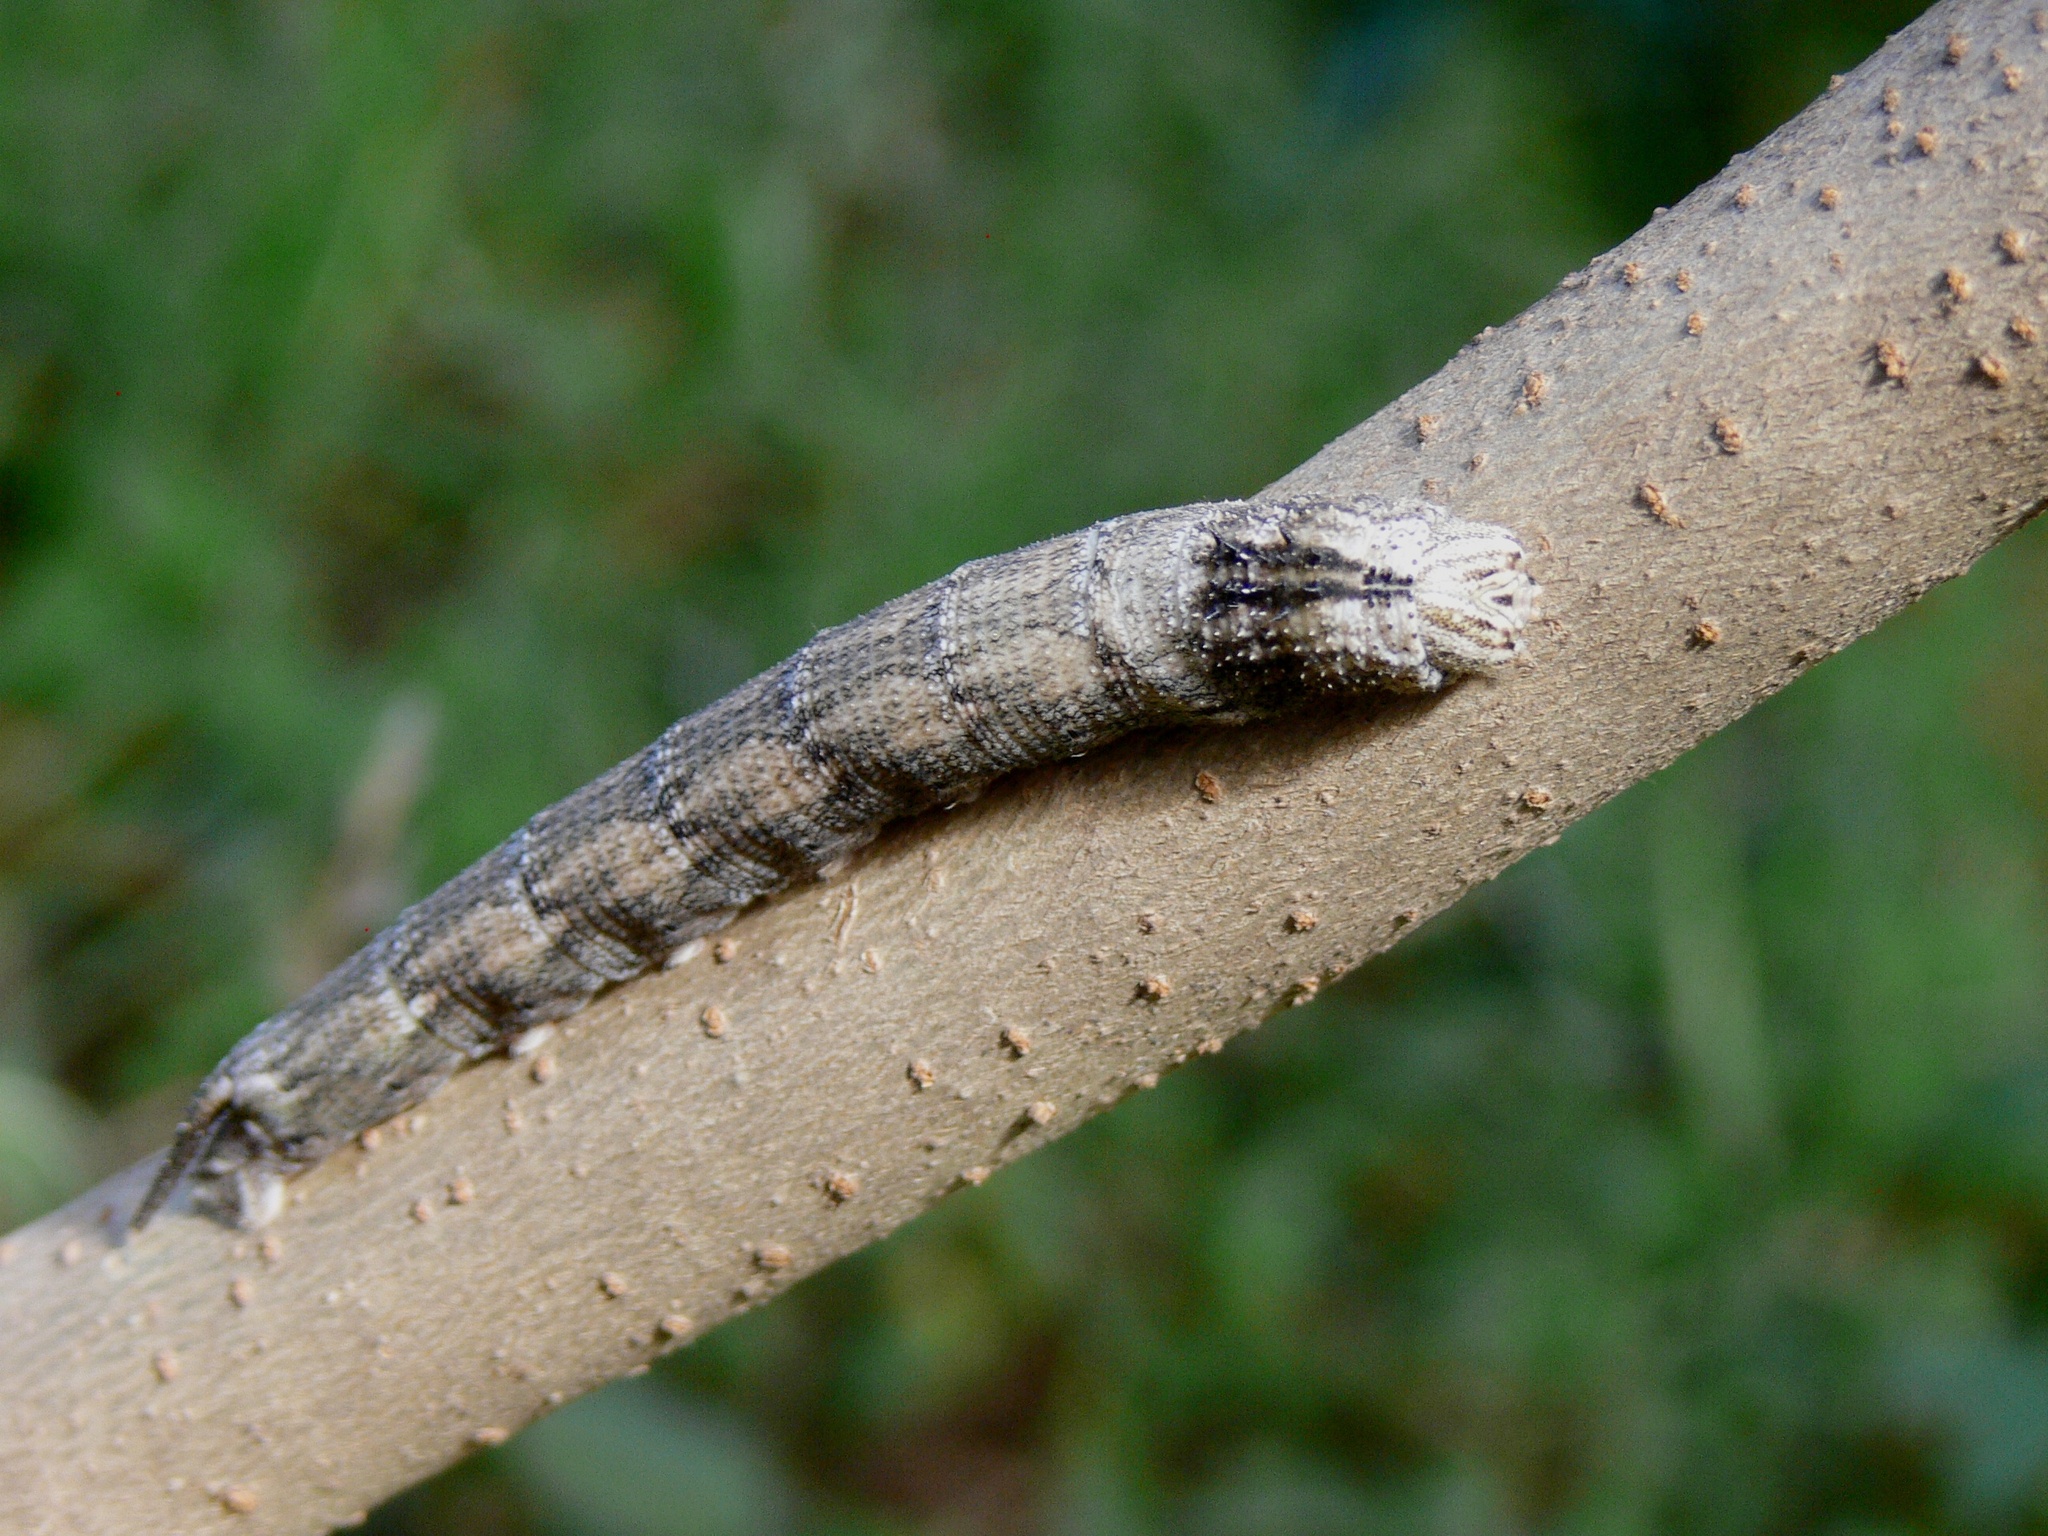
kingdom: Animalia
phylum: Arthropoda
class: Insecta
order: Lepidoptera
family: Sphingidae
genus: Panogena
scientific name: Panogena jasmini
